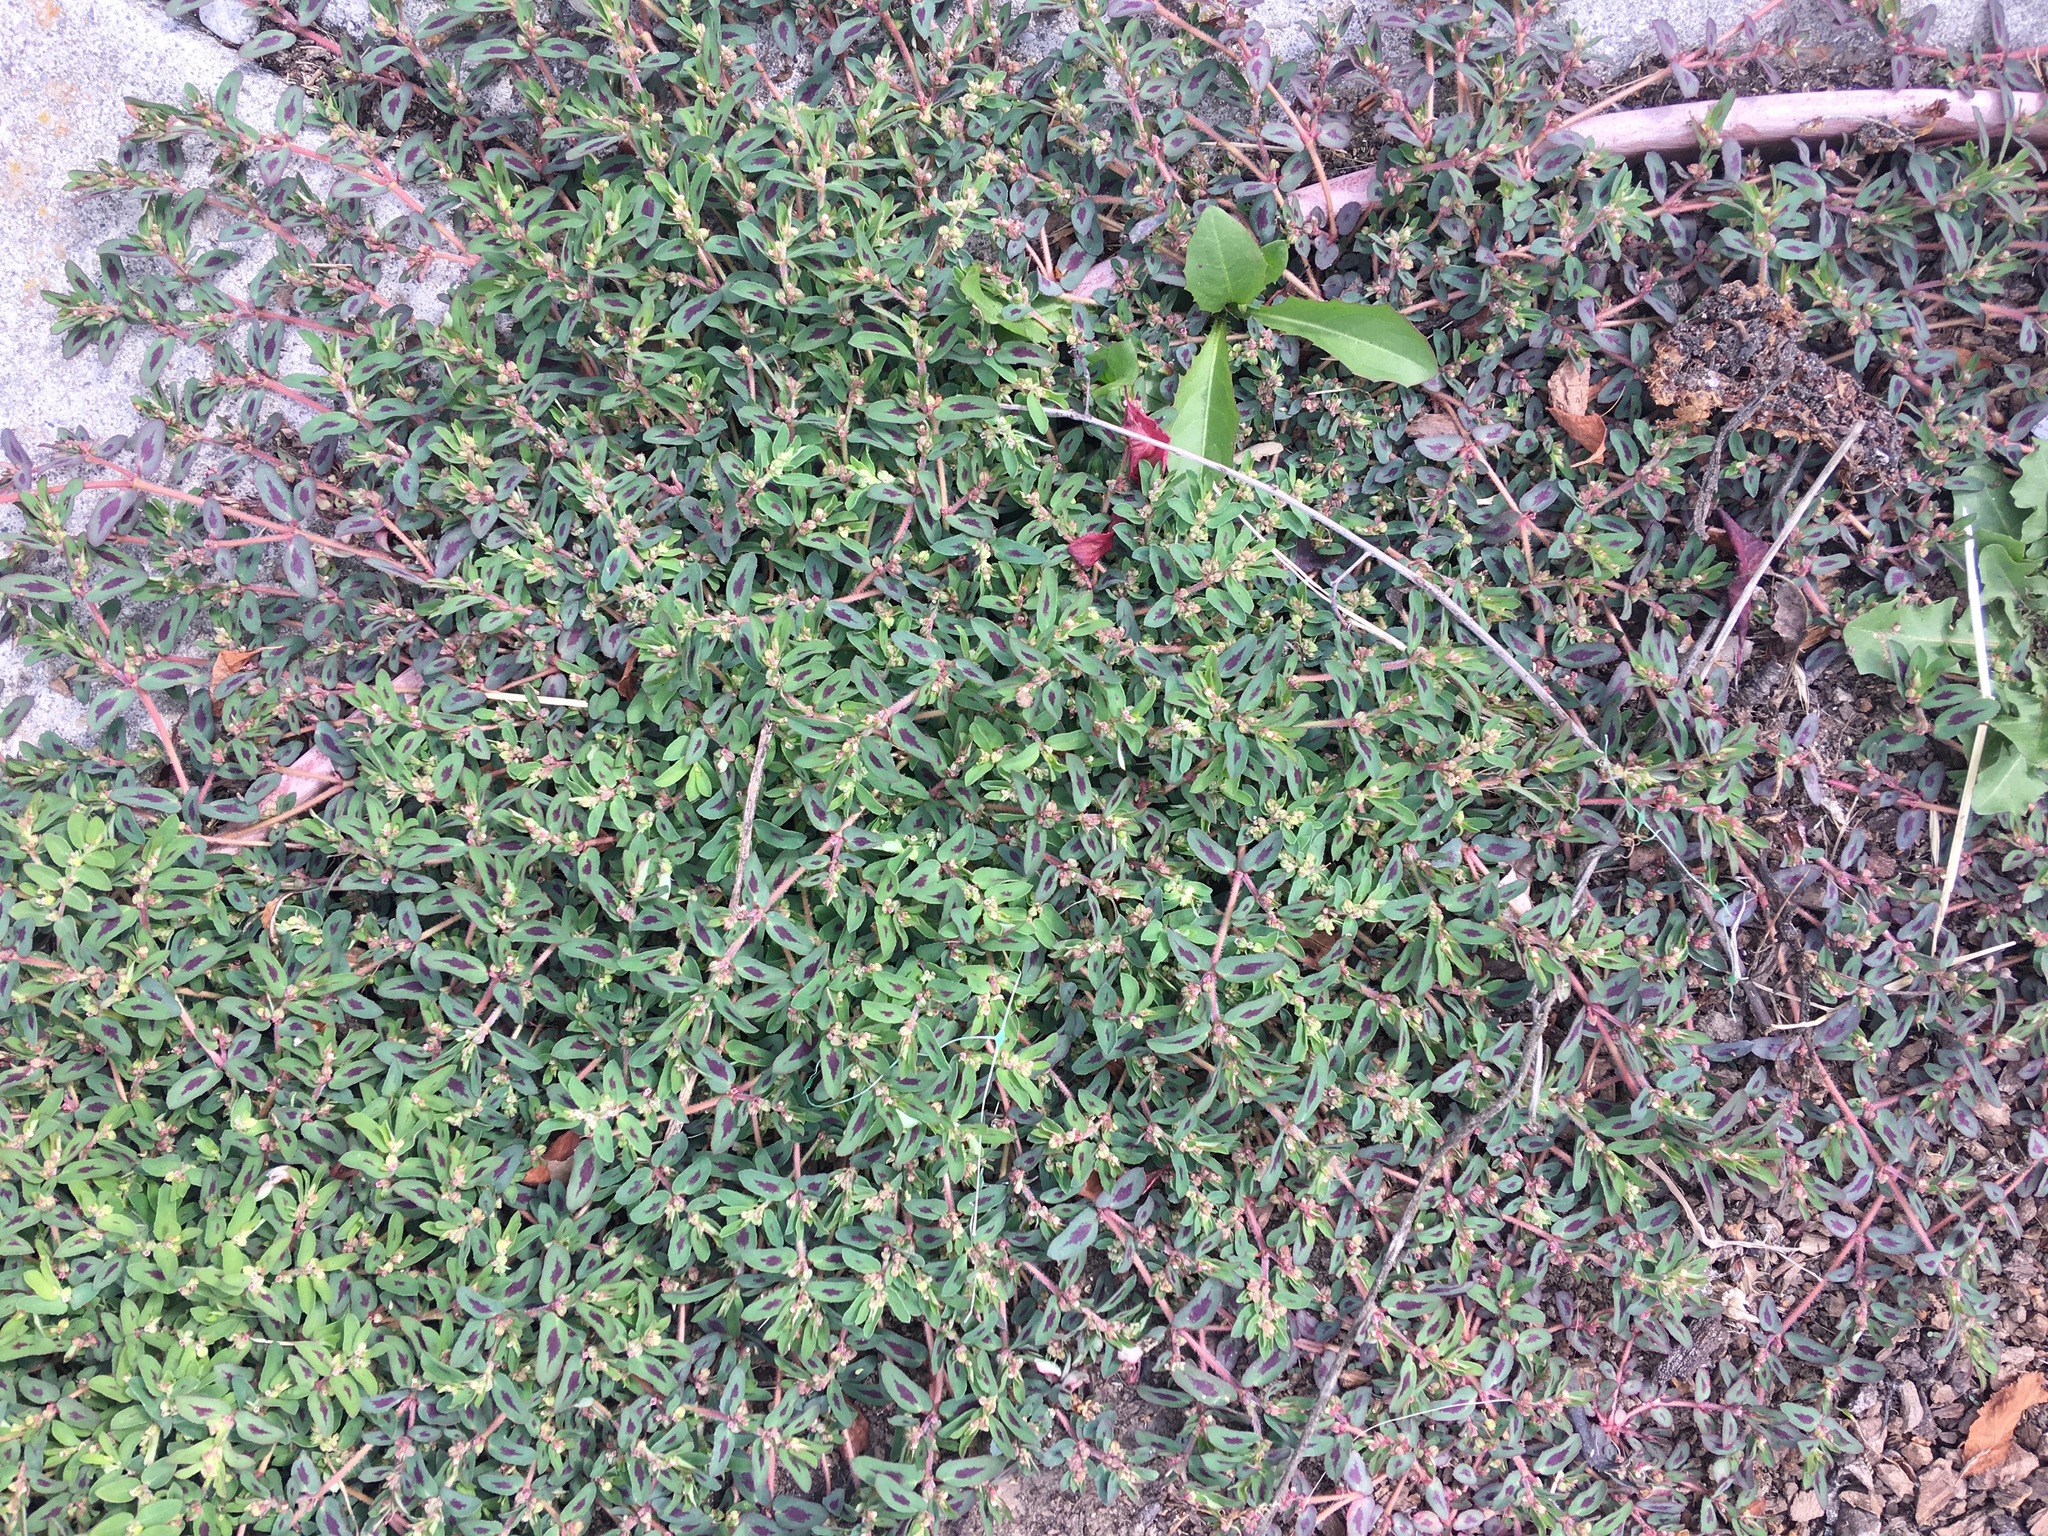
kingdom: Plantae
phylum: Tracheophyta
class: Magnoliopsida
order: Malpighiales
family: Euphorbiaceae
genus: Euphorbia
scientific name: Euphorbia maculata
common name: Spotted spurge
